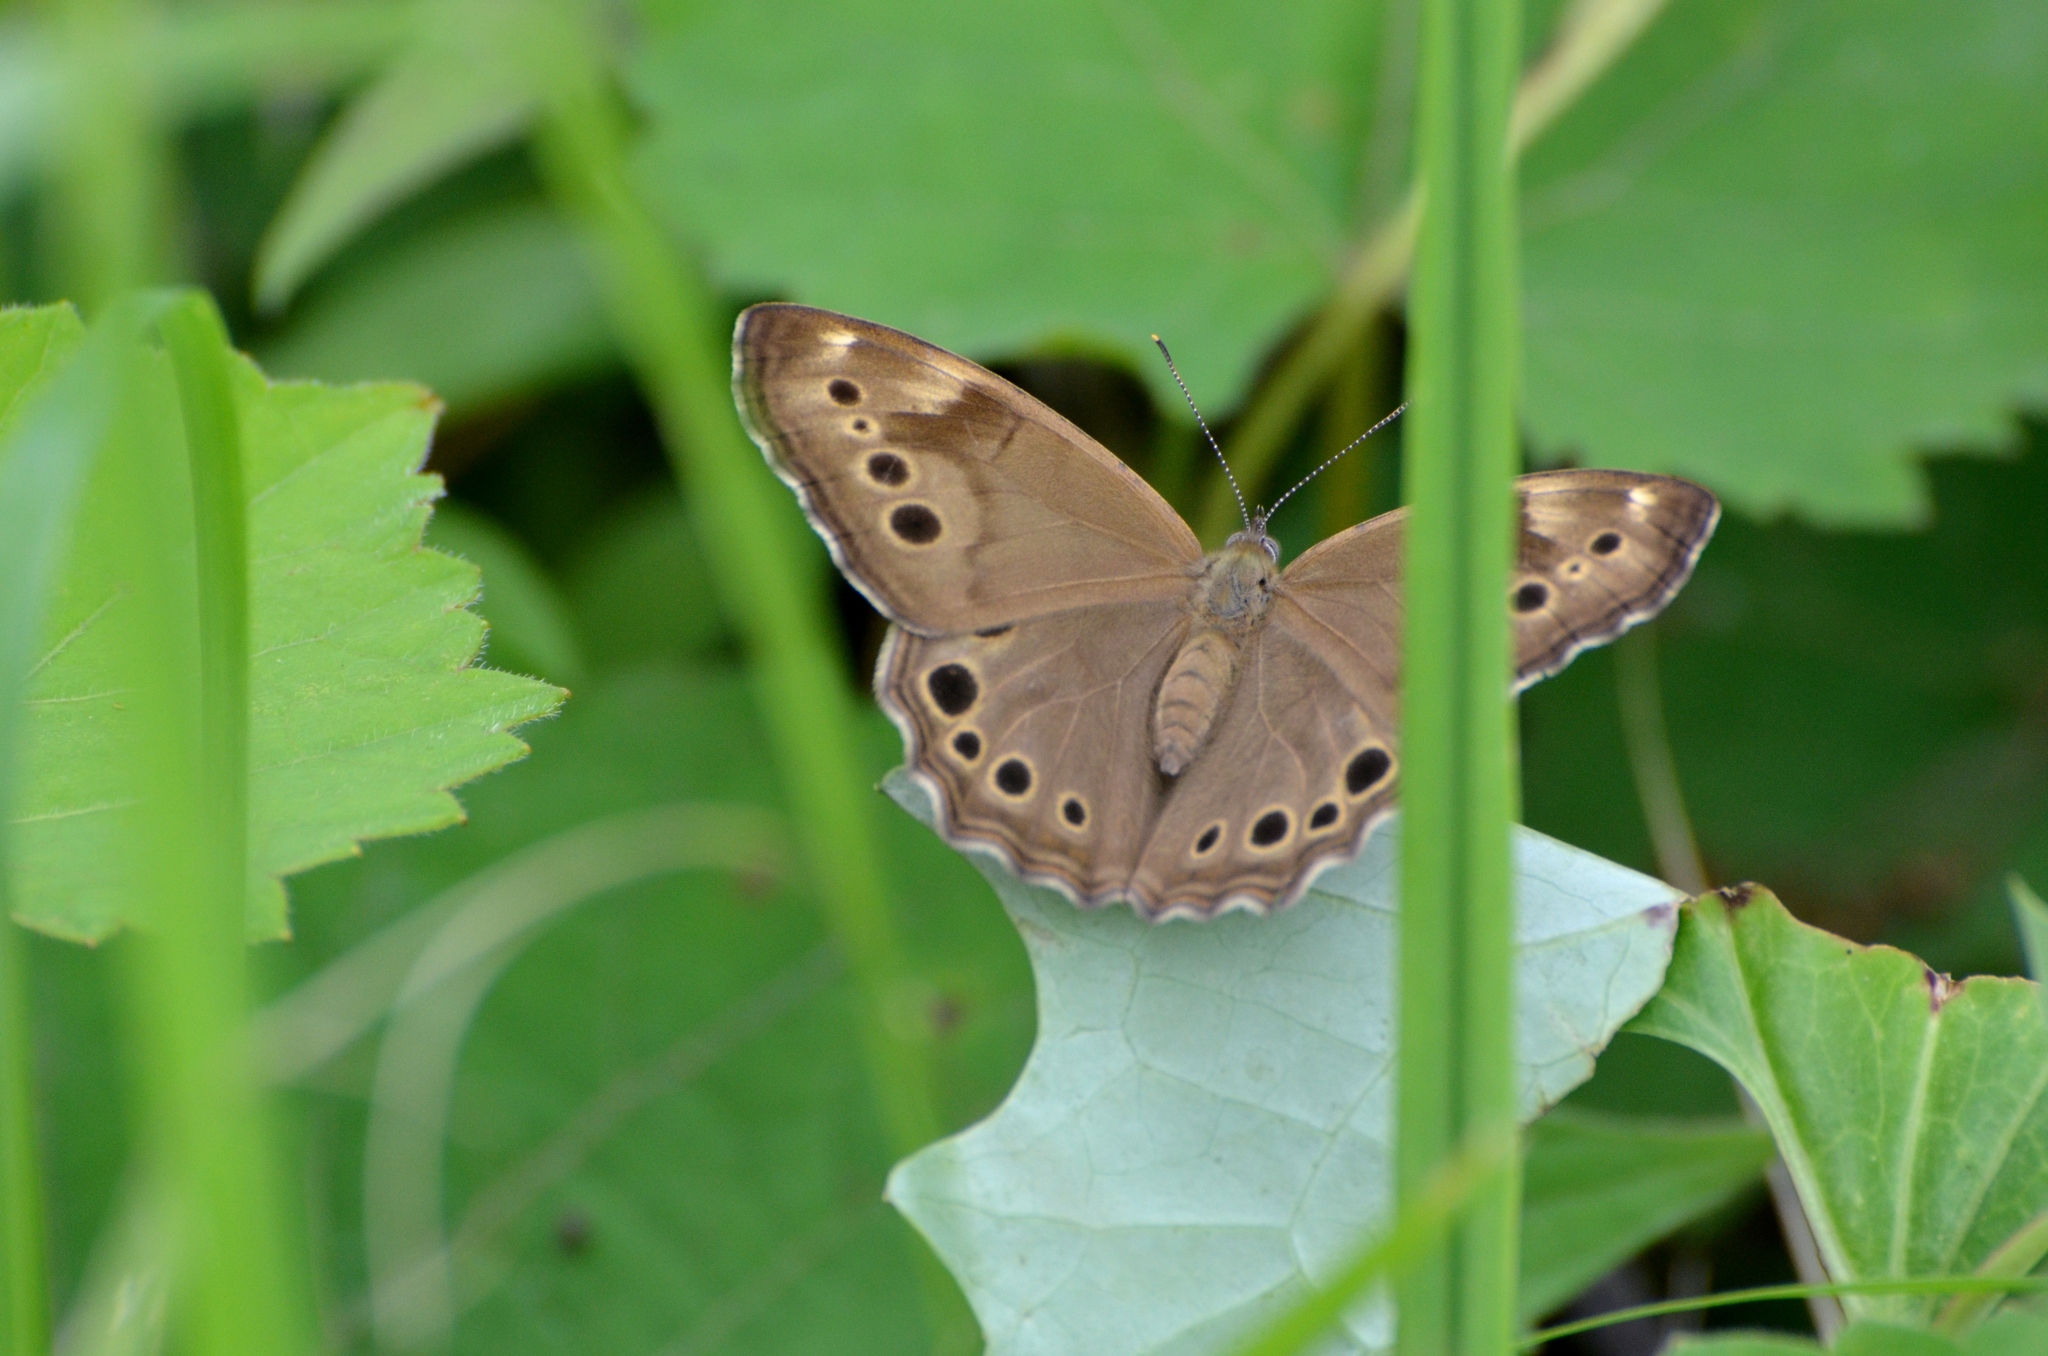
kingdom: Animalia
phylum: Arthropoda
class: Insecta
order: Lepidoptera
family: Nymphalidae
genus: Lethe
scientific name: Lethe anthedon
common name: Northern pearly-eye
